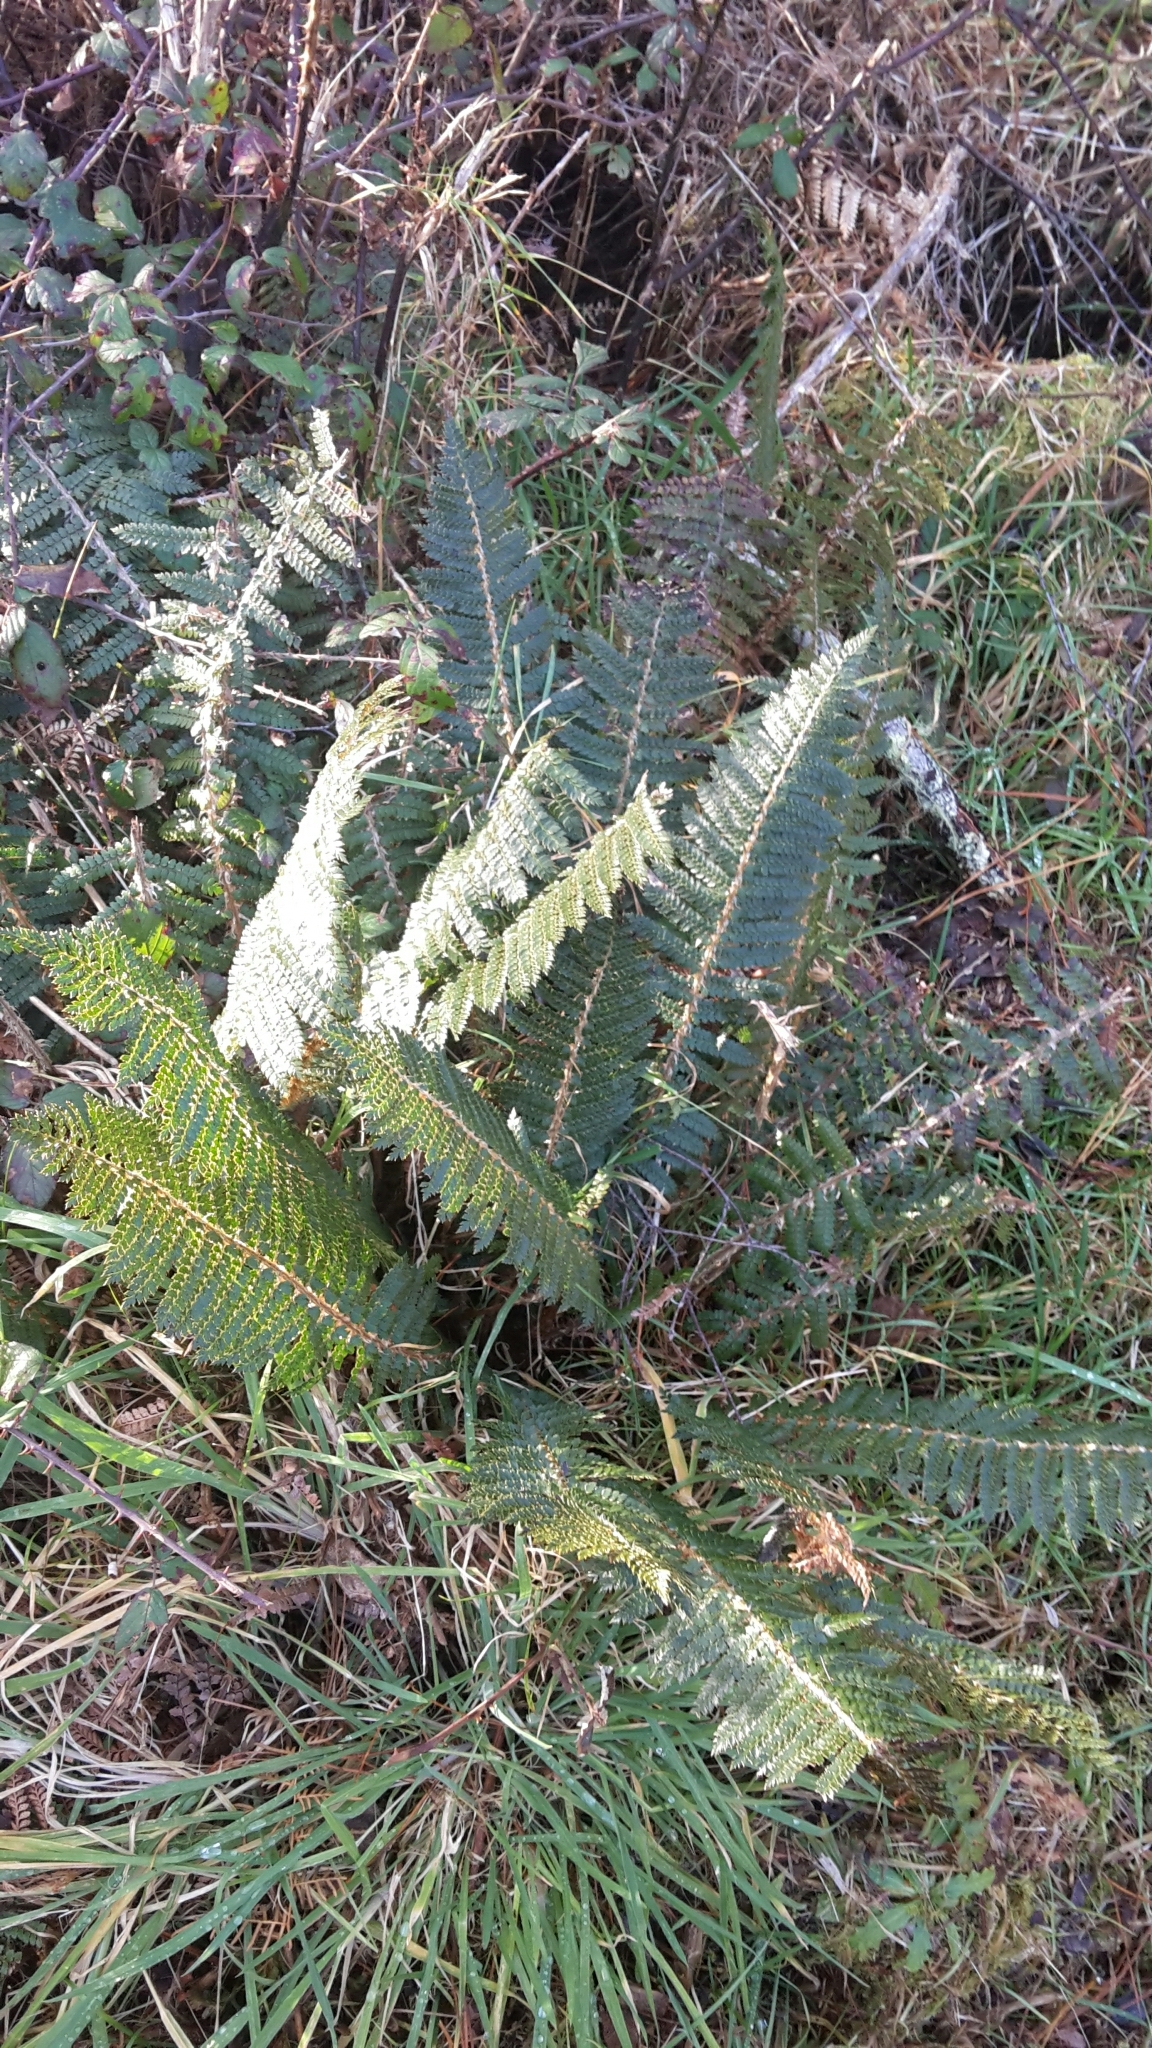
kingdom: Plantae
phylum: Tracheophyta
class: Polypodiopsida
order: Polypodiales
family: Dryopteridaceae
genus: Polystichum
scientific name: Polystichum vestitum
